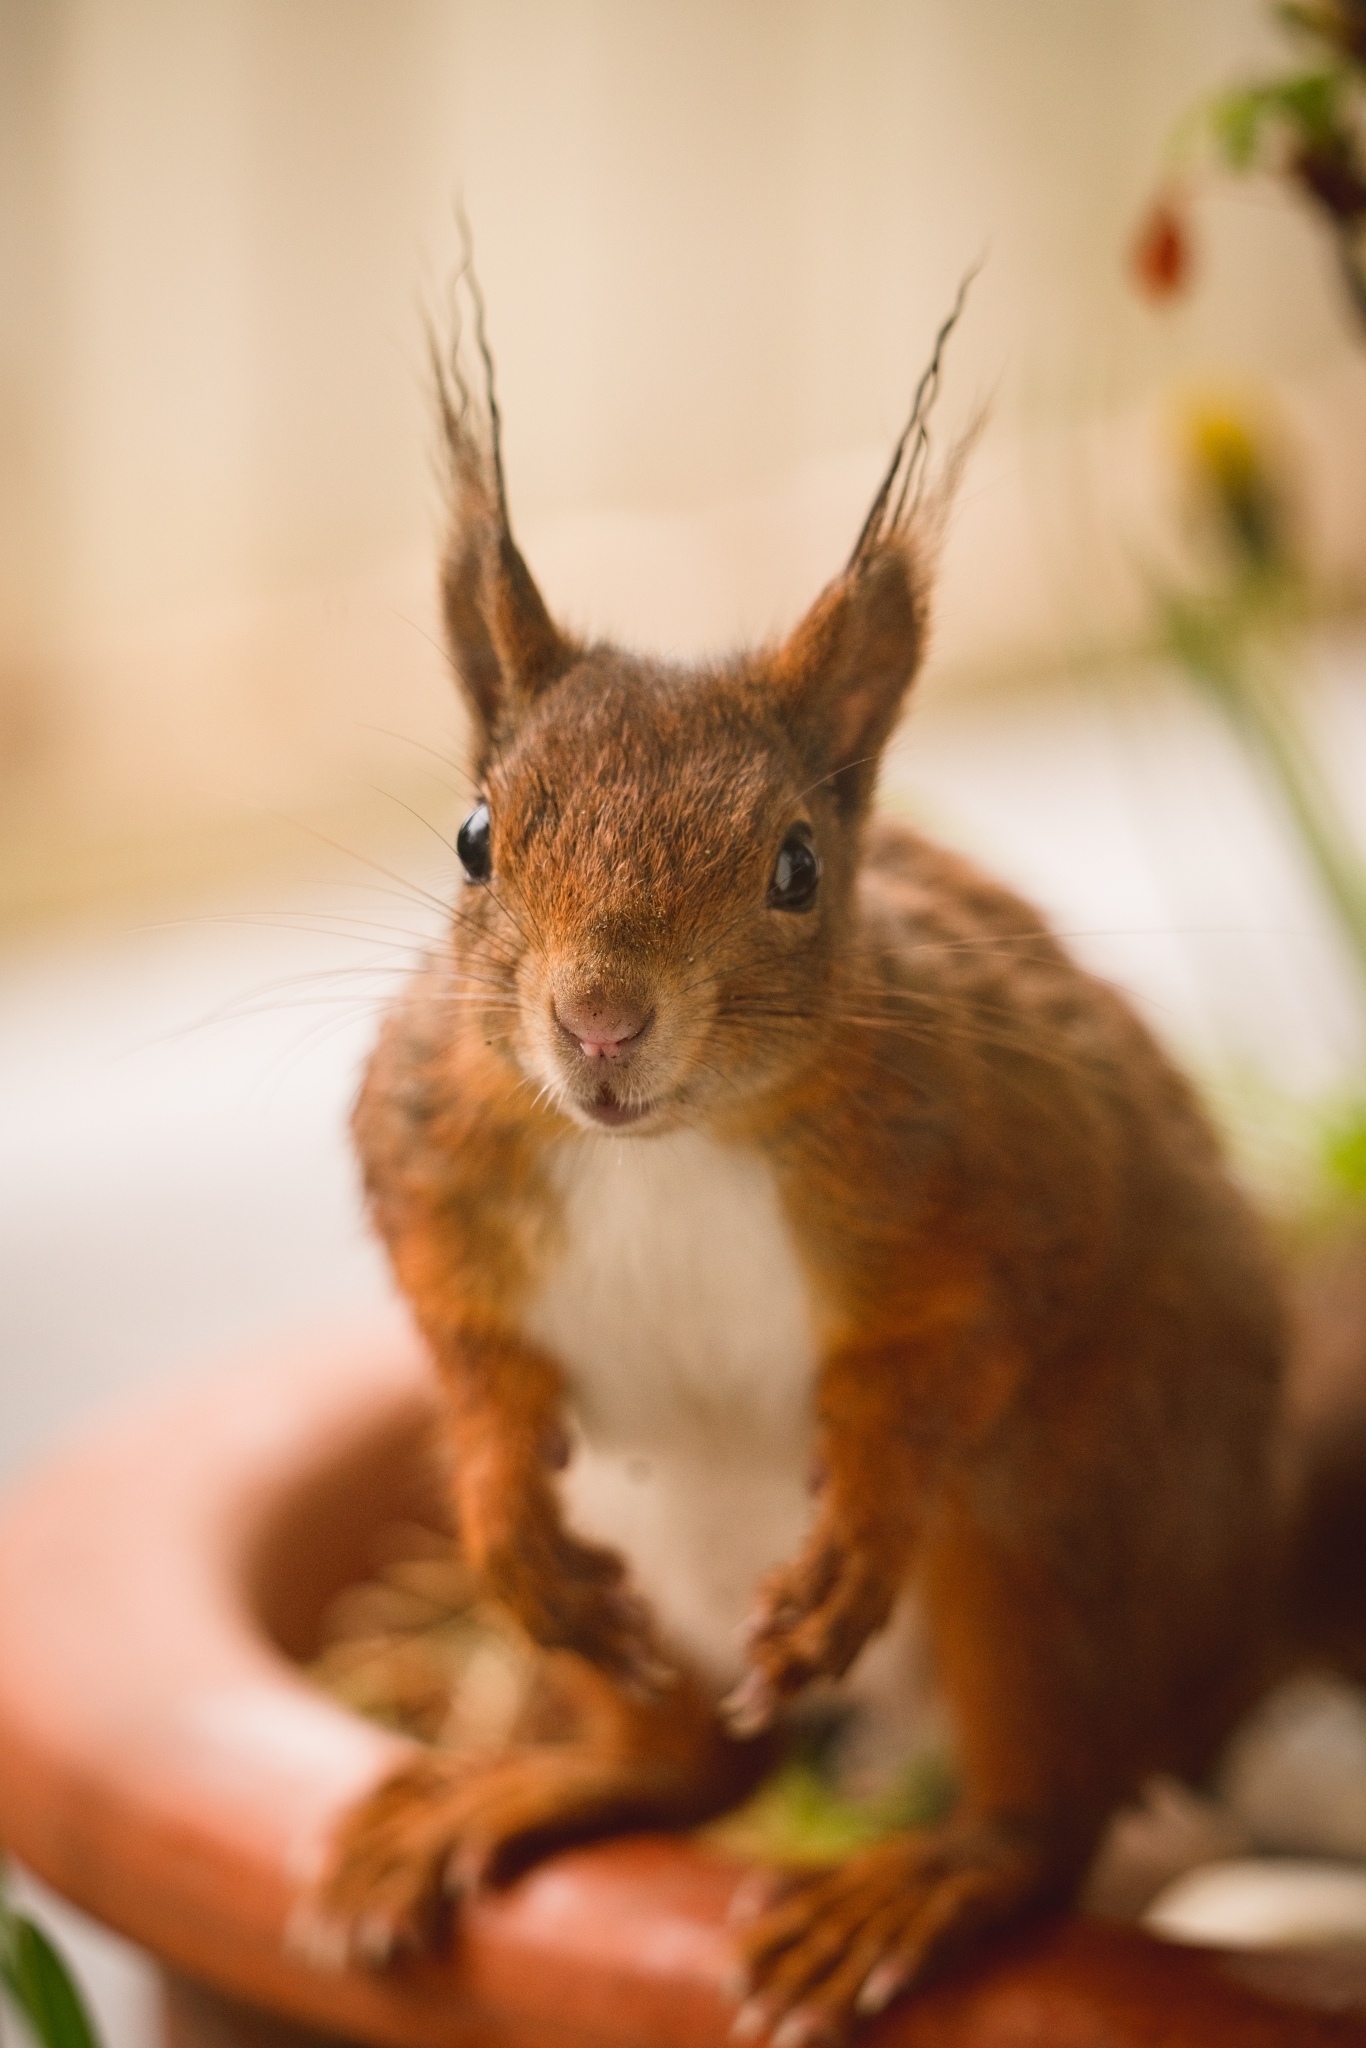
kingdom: Animalia
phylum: Chordata
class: Mammalia
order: Rodentia
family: Sciuridae
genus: Sciurus
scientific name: Sciurus vulgaris
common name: Eurasian red squirrel
